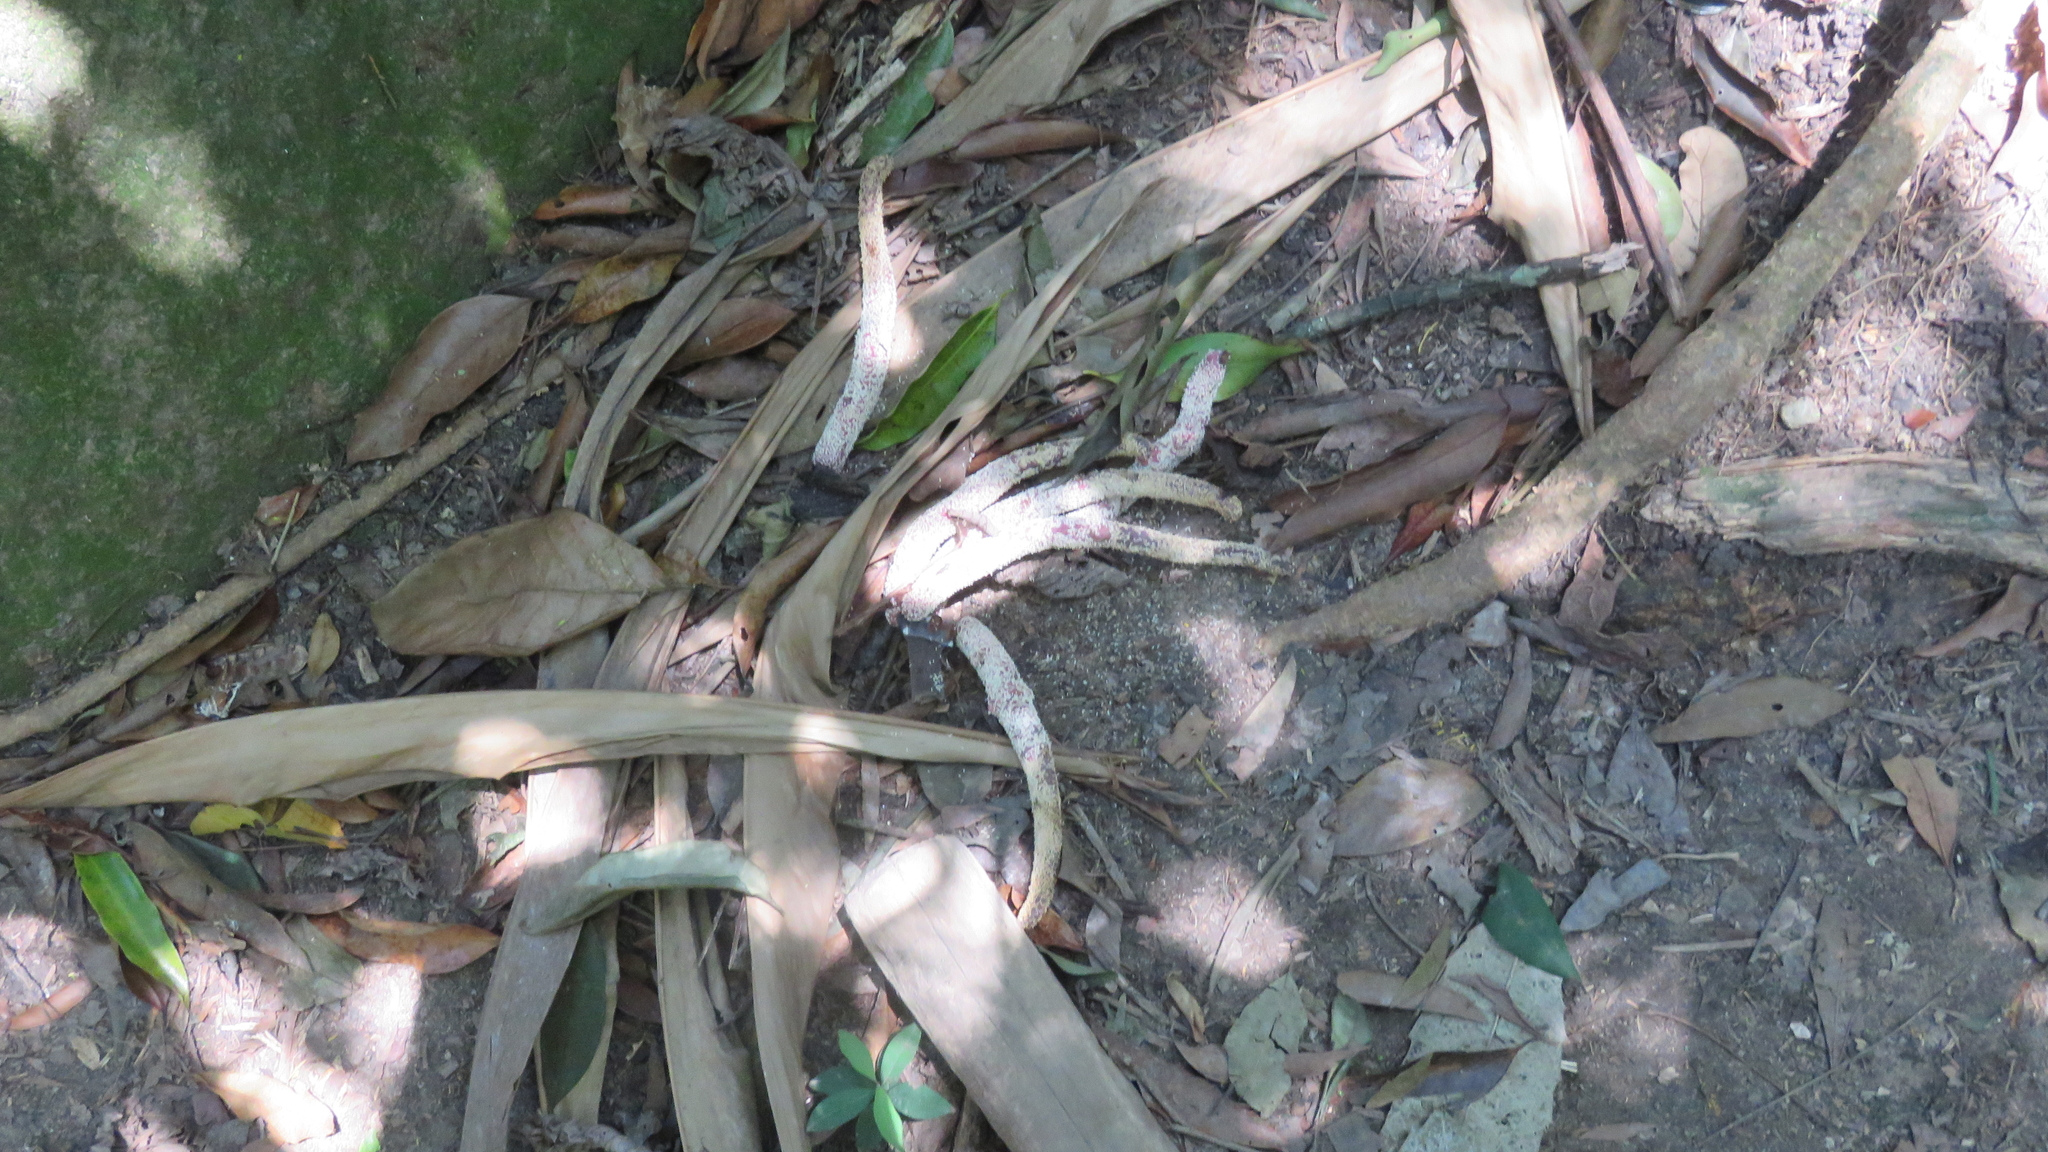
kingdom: Plantae
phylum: Tracheophyta
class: Magnoliopsida
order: Rosales
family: Urticaceae
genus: Cecropia
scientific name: Cecropia glaziovii
